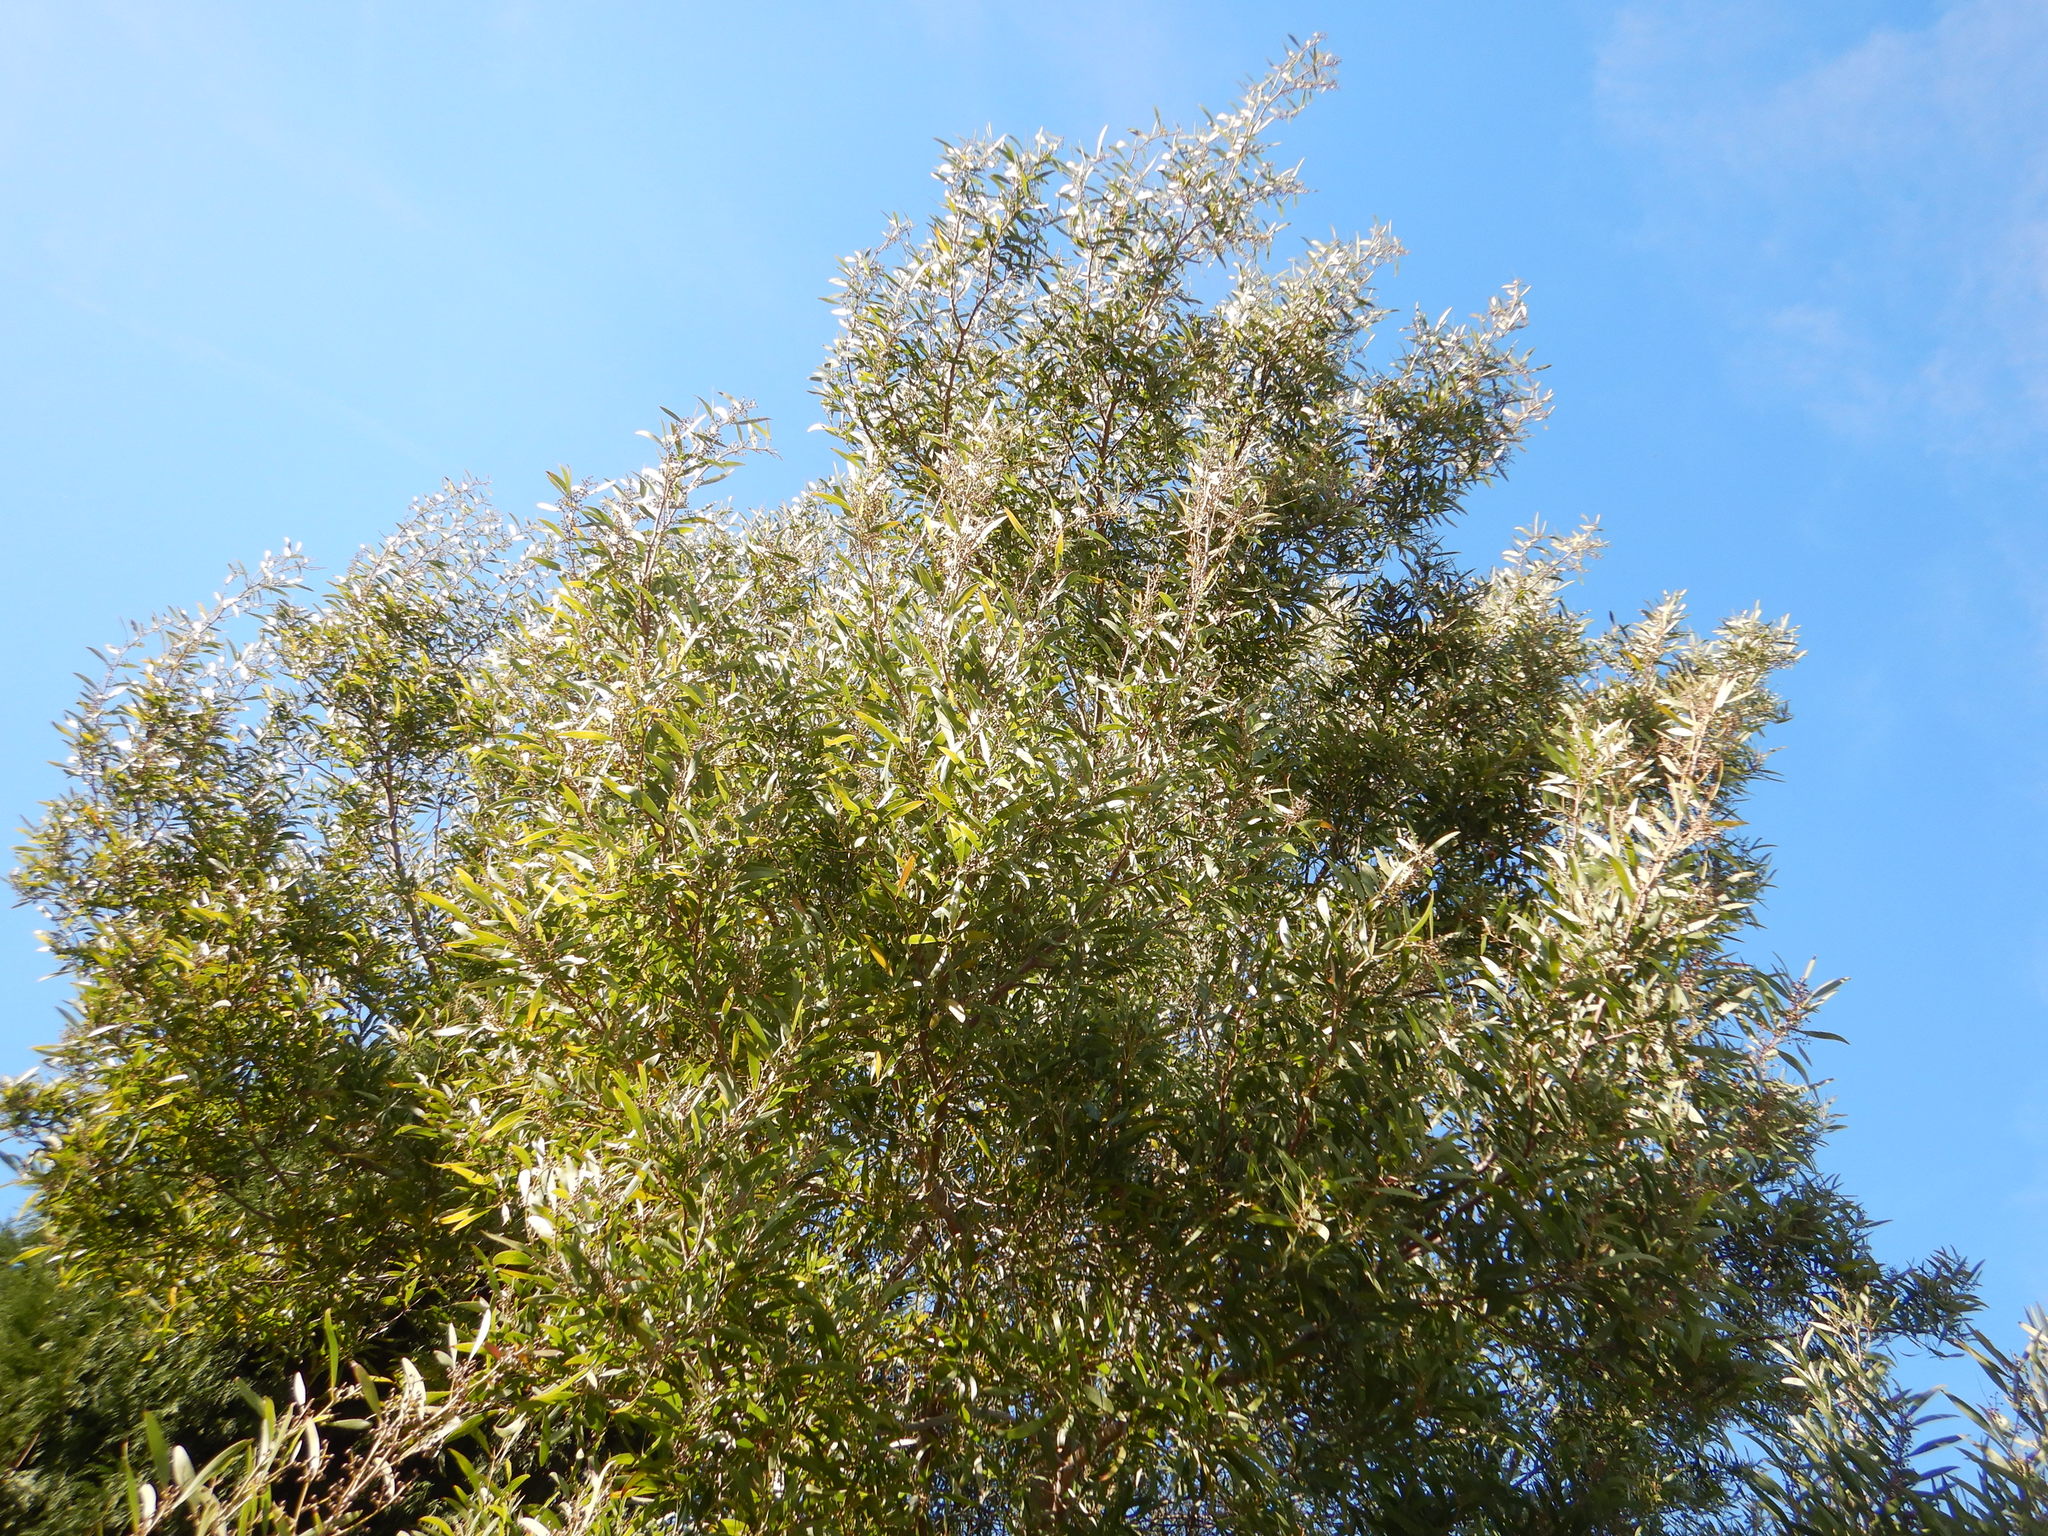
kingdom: Plantae
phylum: Tracheophyta
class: Magnoliopsida
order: Fabales
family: Fabaceae
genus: Acacia
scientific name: Acacia melanoxylon
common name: Blackwood
